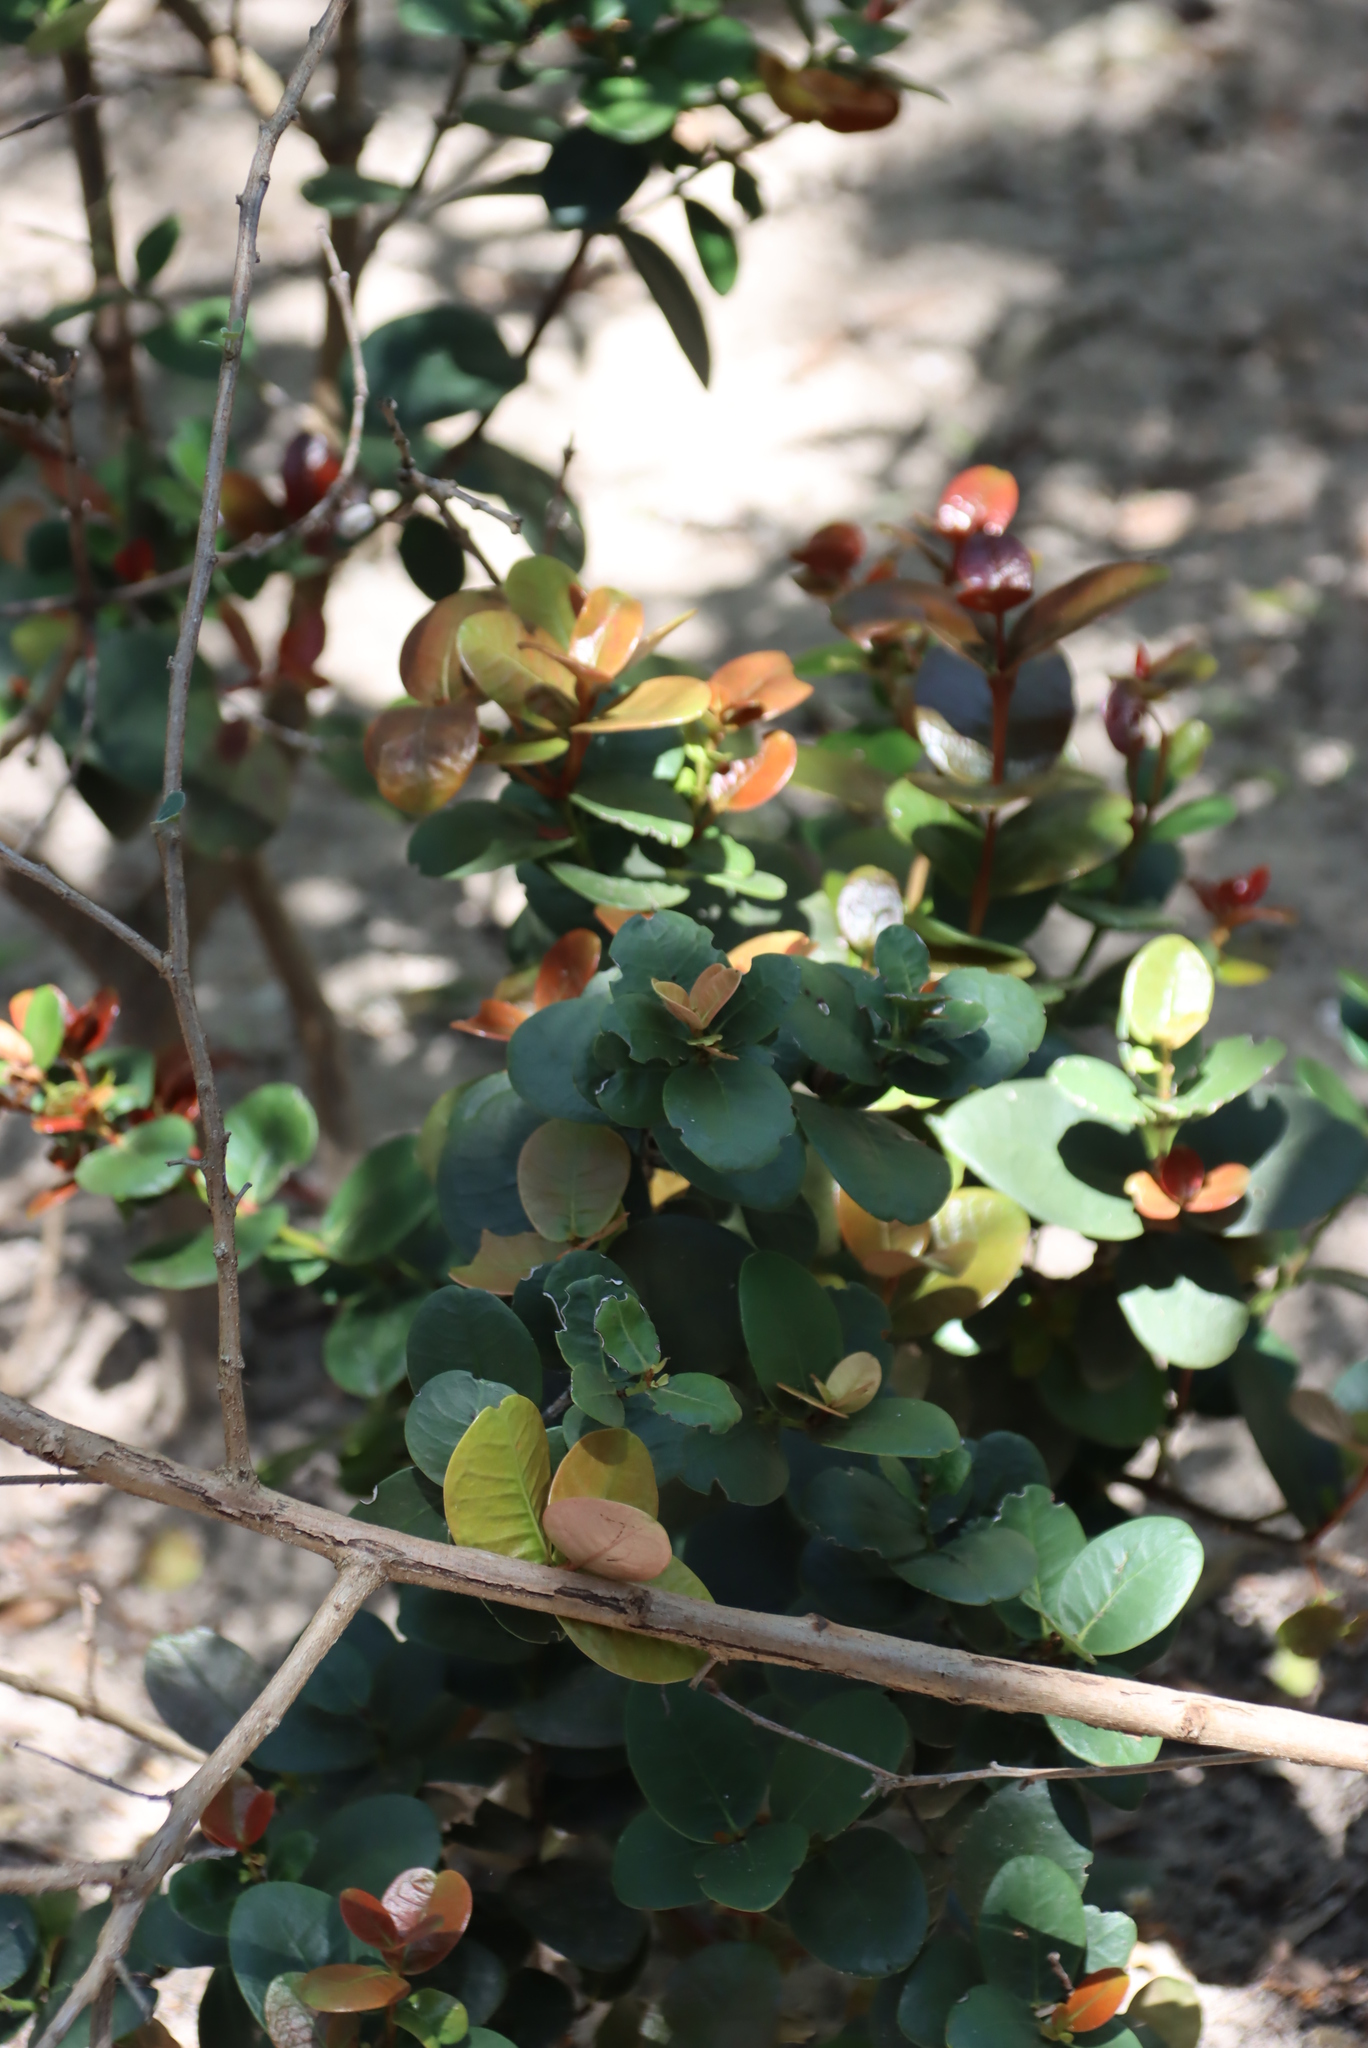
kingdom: Plantae
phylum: Tracheophyta
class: Magnoliopsida
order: Celastrales
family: Celastraceae
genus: Maurocenia
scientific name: Maurocenia frangula
